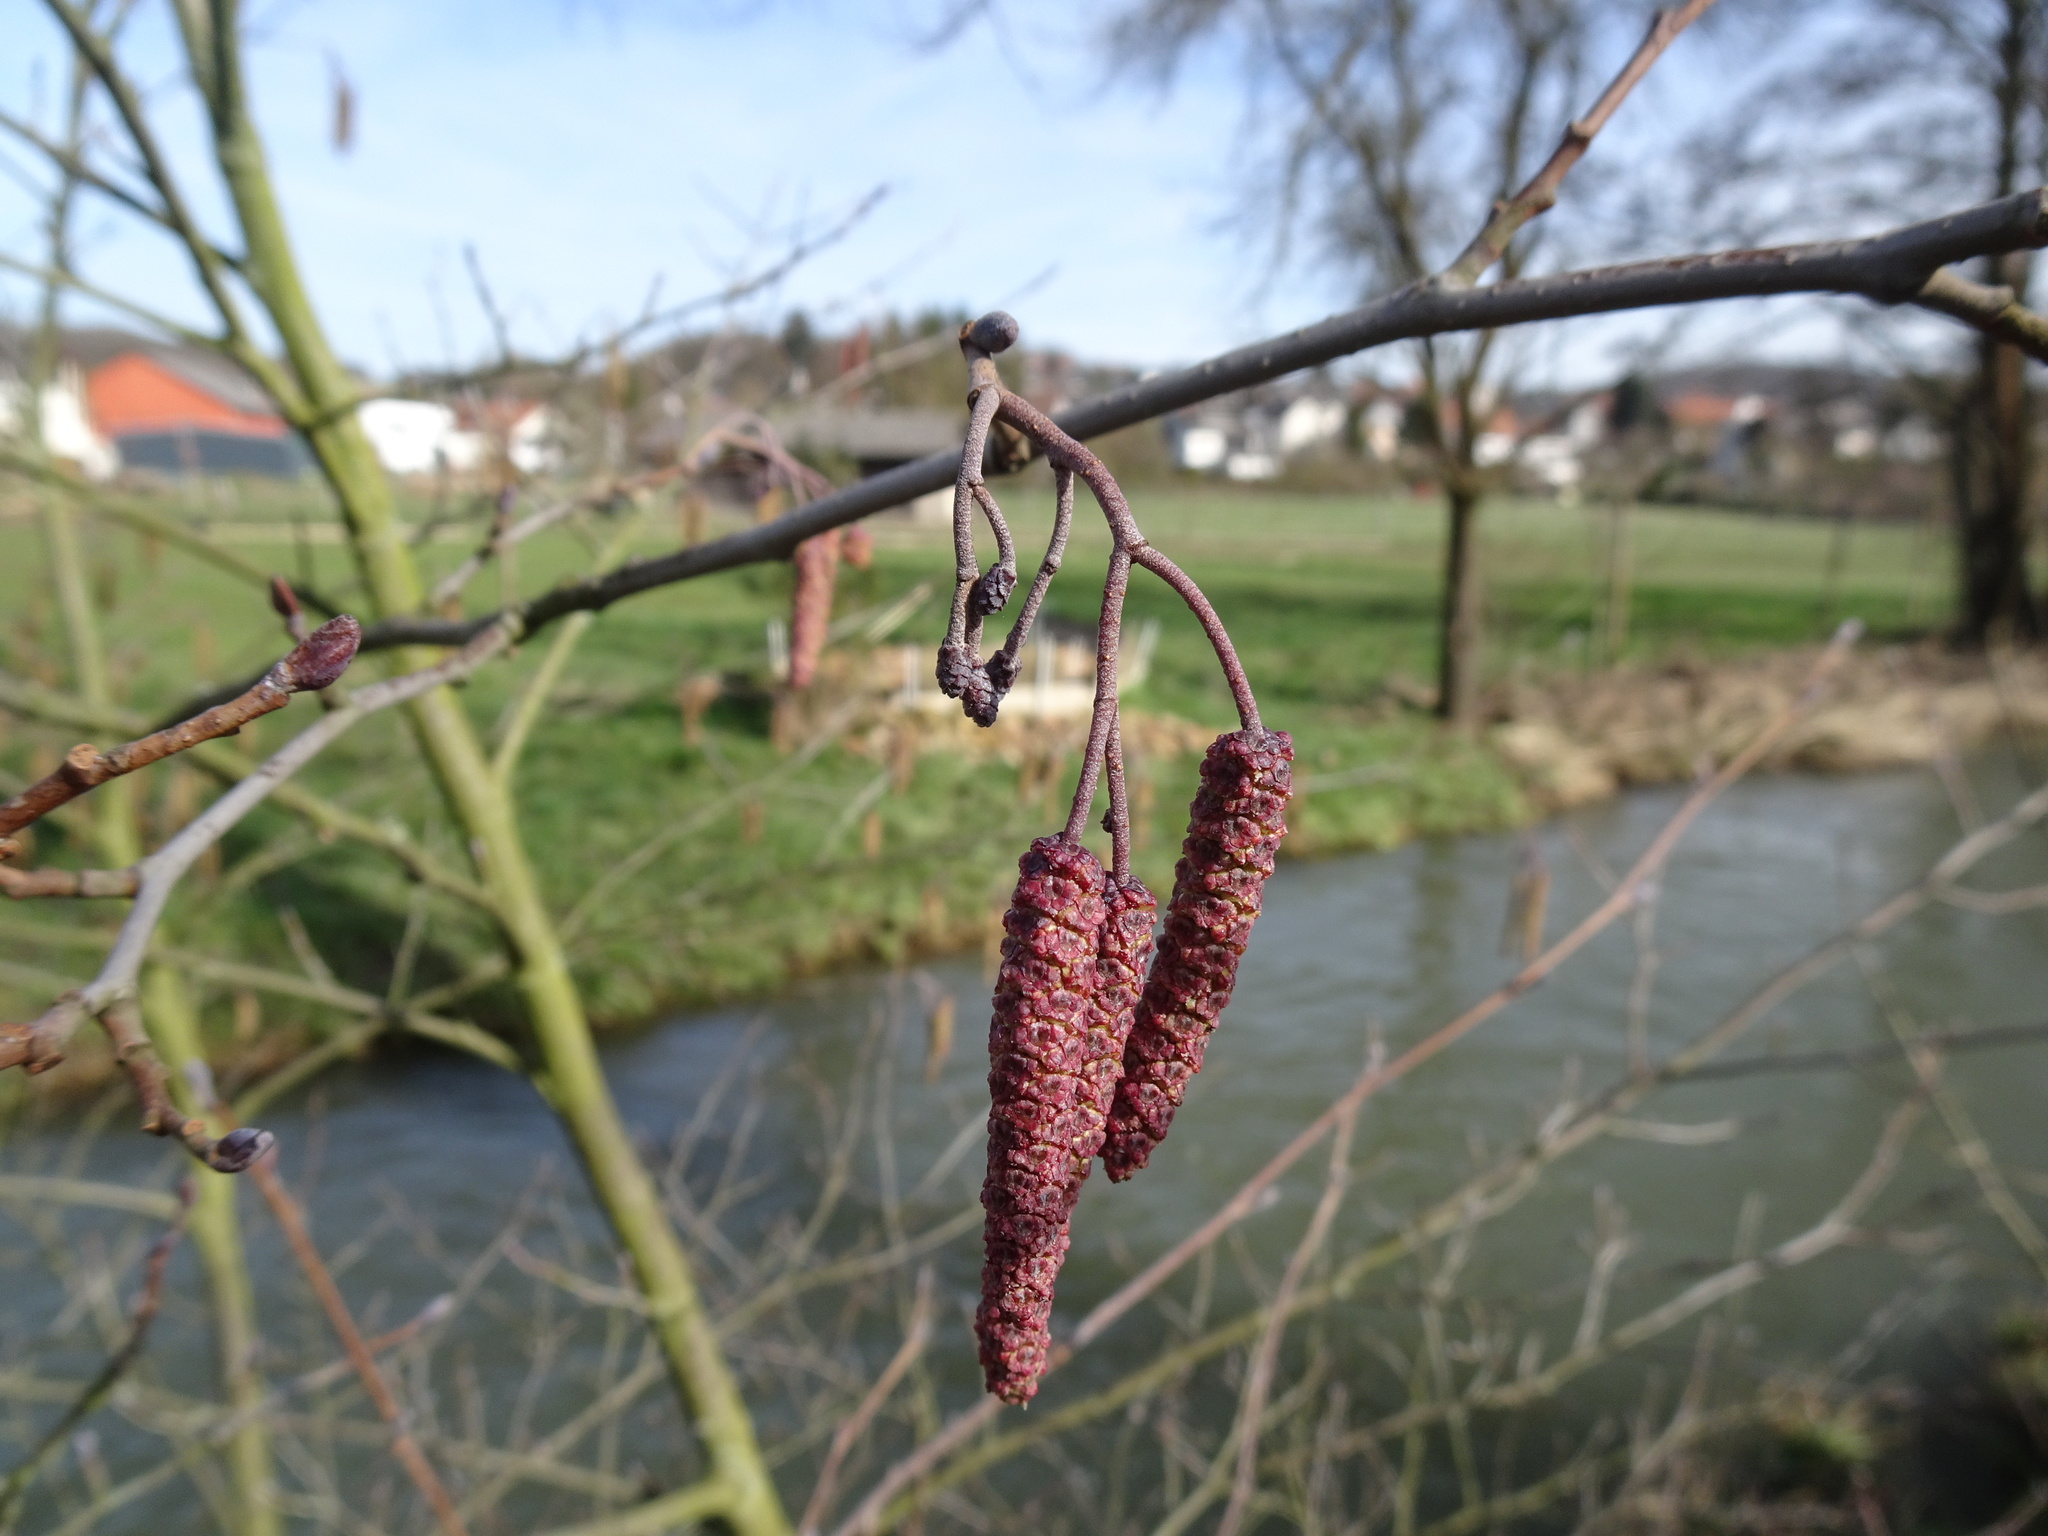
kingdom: Plantae
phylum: Tracheophyta
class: Magnoliopsida
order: Fagales
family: Betulaceae
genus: Alnus
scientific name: Alnus glutinosa
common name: Black alder
